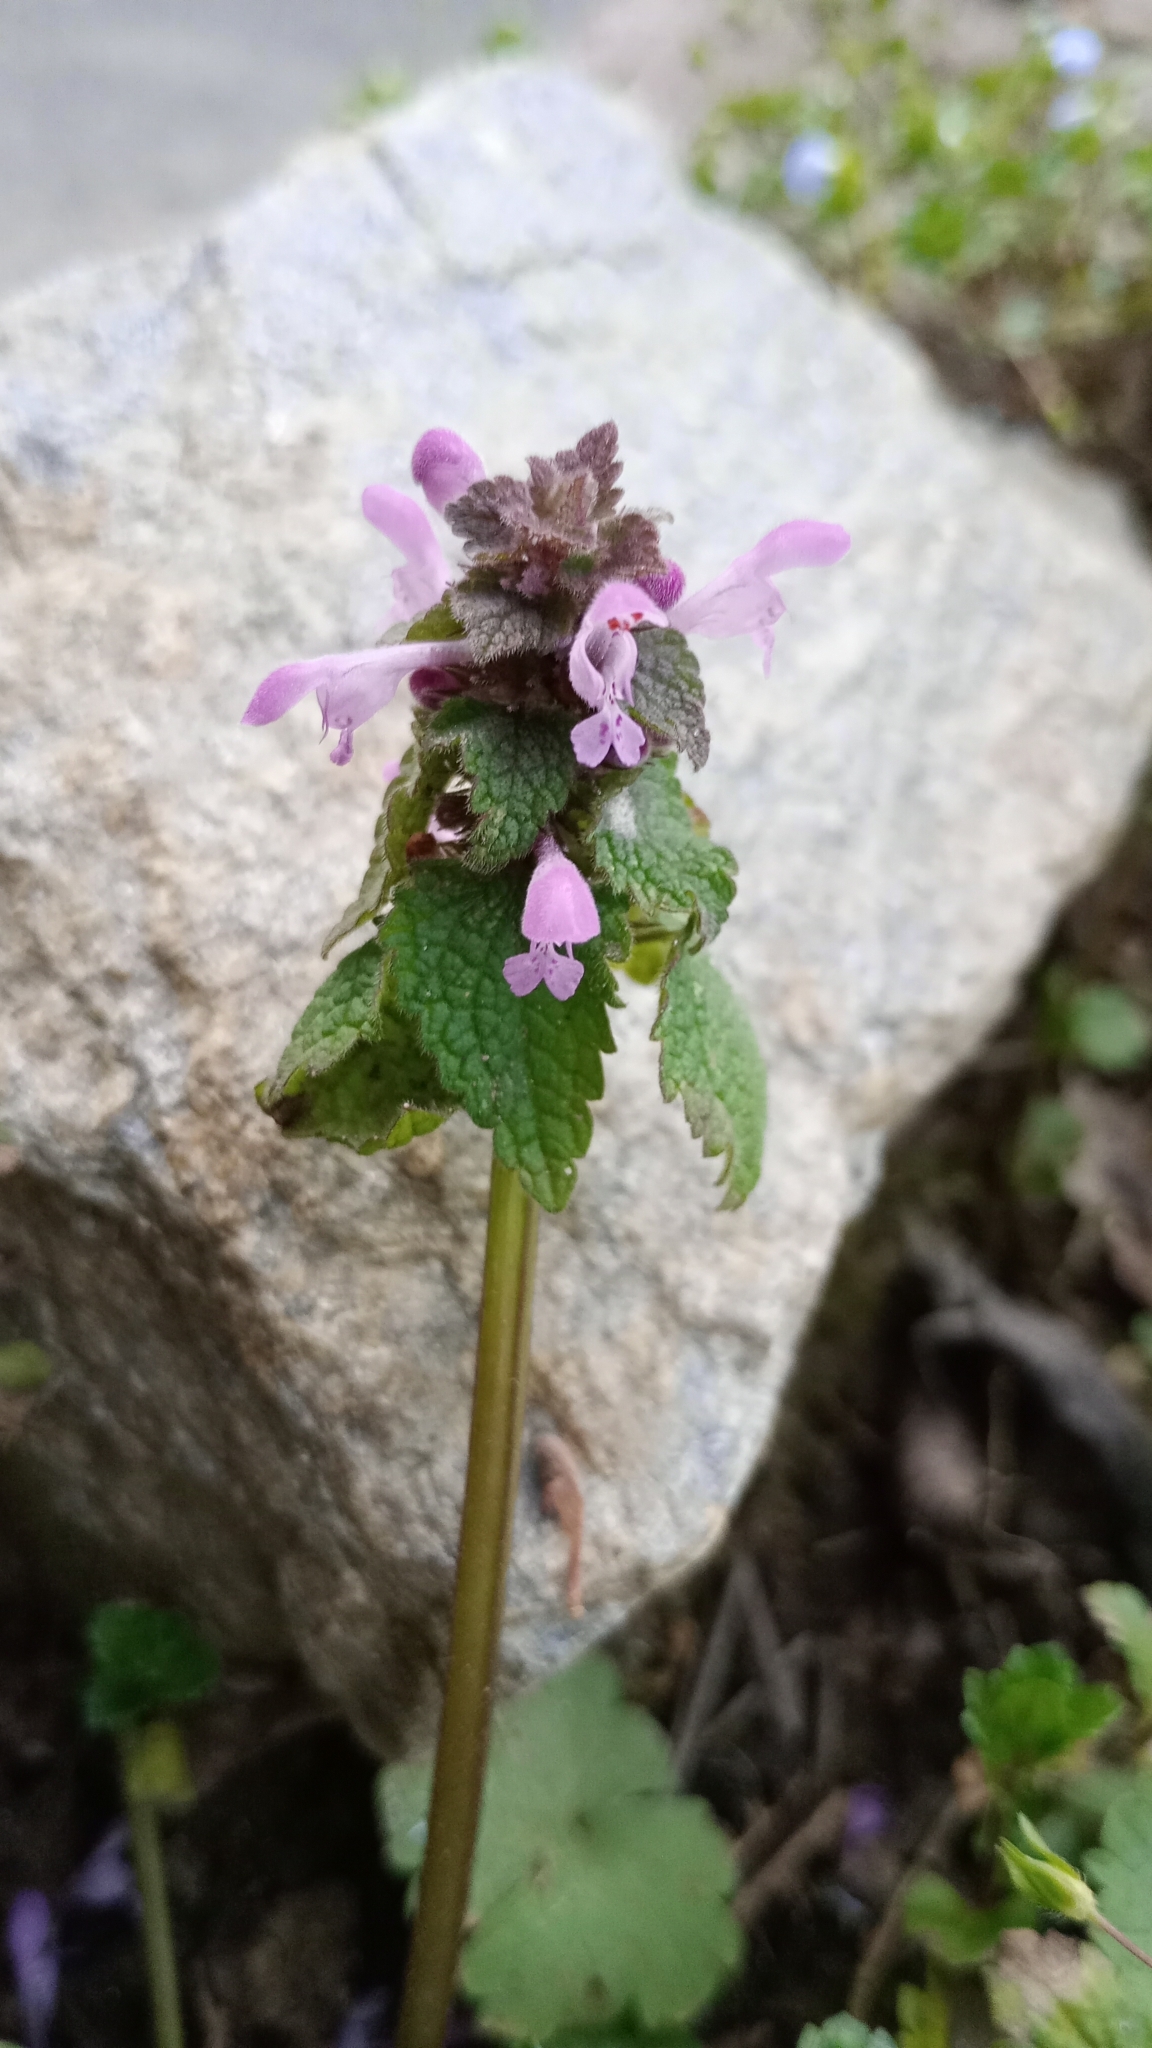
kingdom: Plantae
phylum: Tracheophyta
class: Magnoliopsida
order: Lamiales
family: Lamiaceae
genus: Lamium
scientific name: Lamium purpureum
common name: Red dead-nettle
